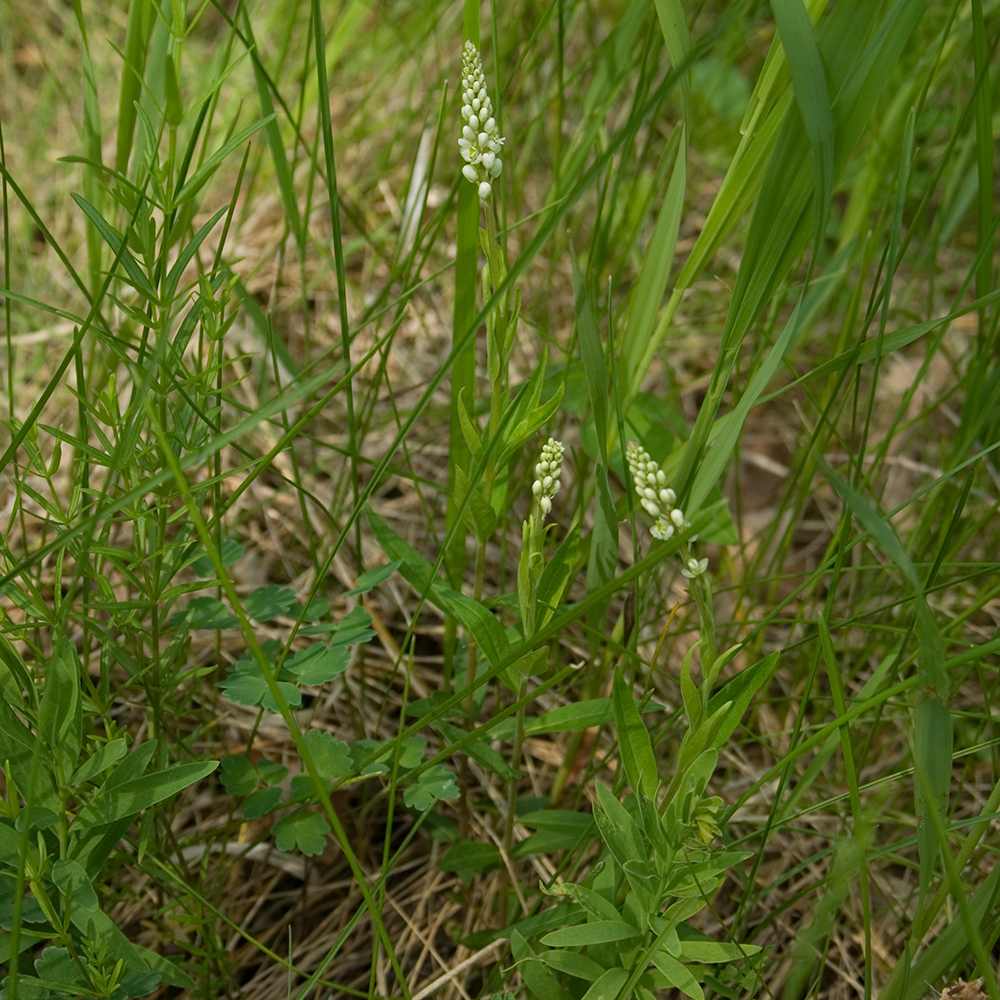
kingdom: Plantae
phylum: Tracheophyta
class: Magnoliopsida
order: Fabales
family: Polygalaceae
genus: Polygala
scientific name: Polygala senega
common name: Seneca snakeroot
